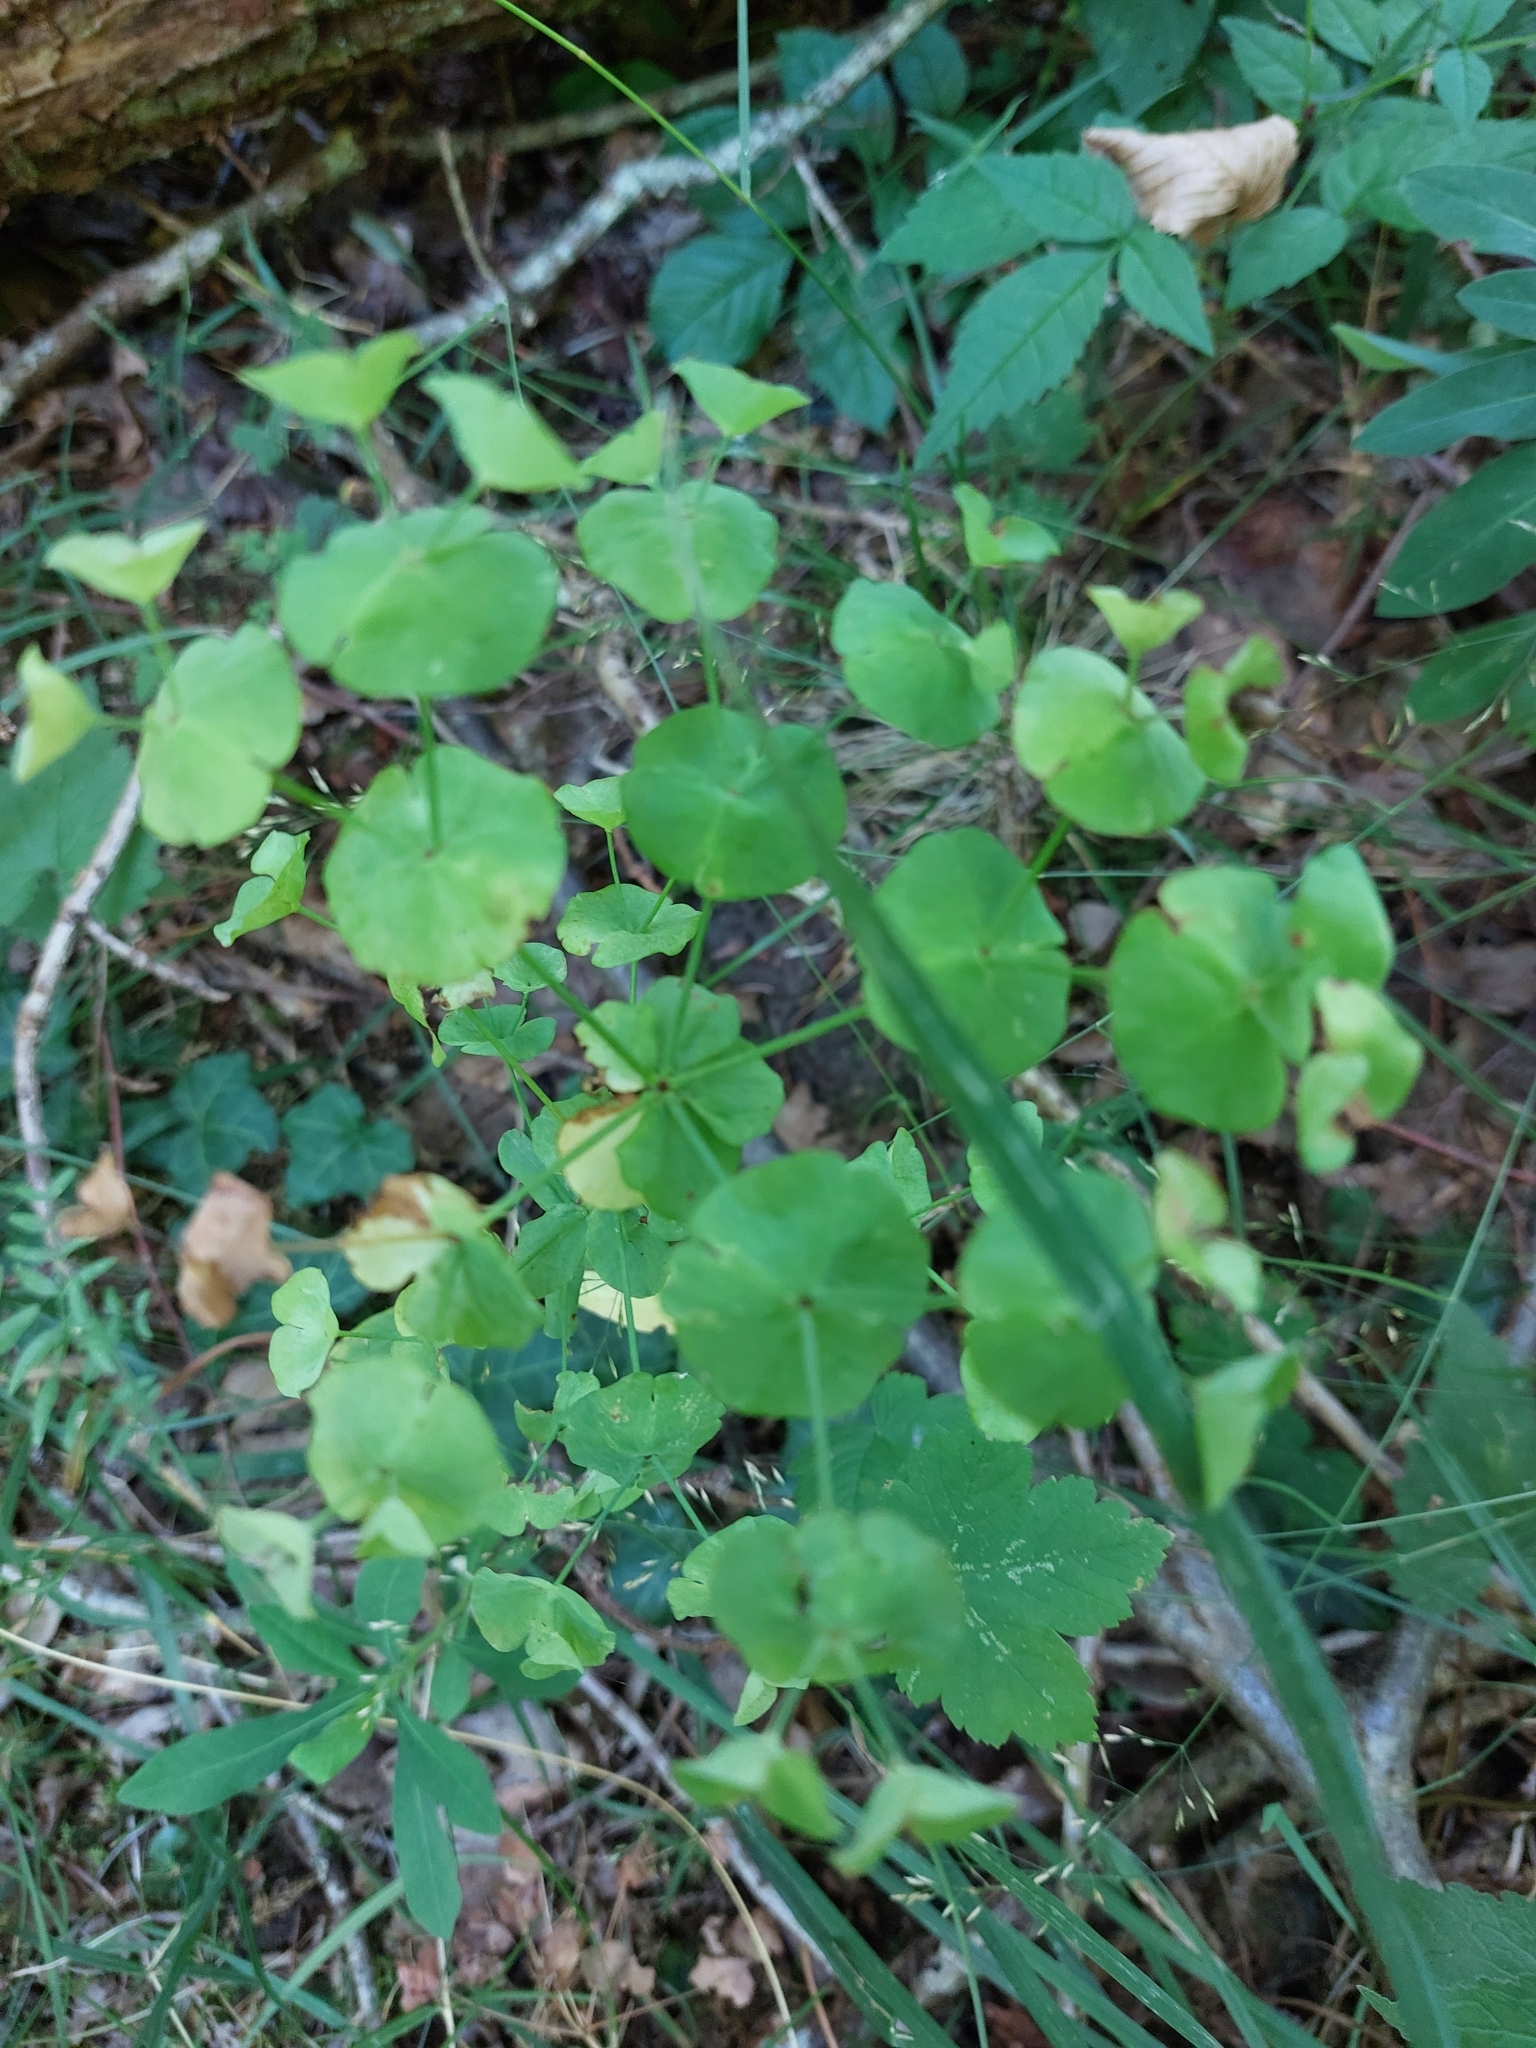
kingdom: Plantae
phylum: Tracheophyta
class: Magnoliopsida
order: Malpighiales
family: Euphorbiaceae
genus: Euphorbia
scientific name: Euphorbia amygdaloides
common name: Wood spurge
